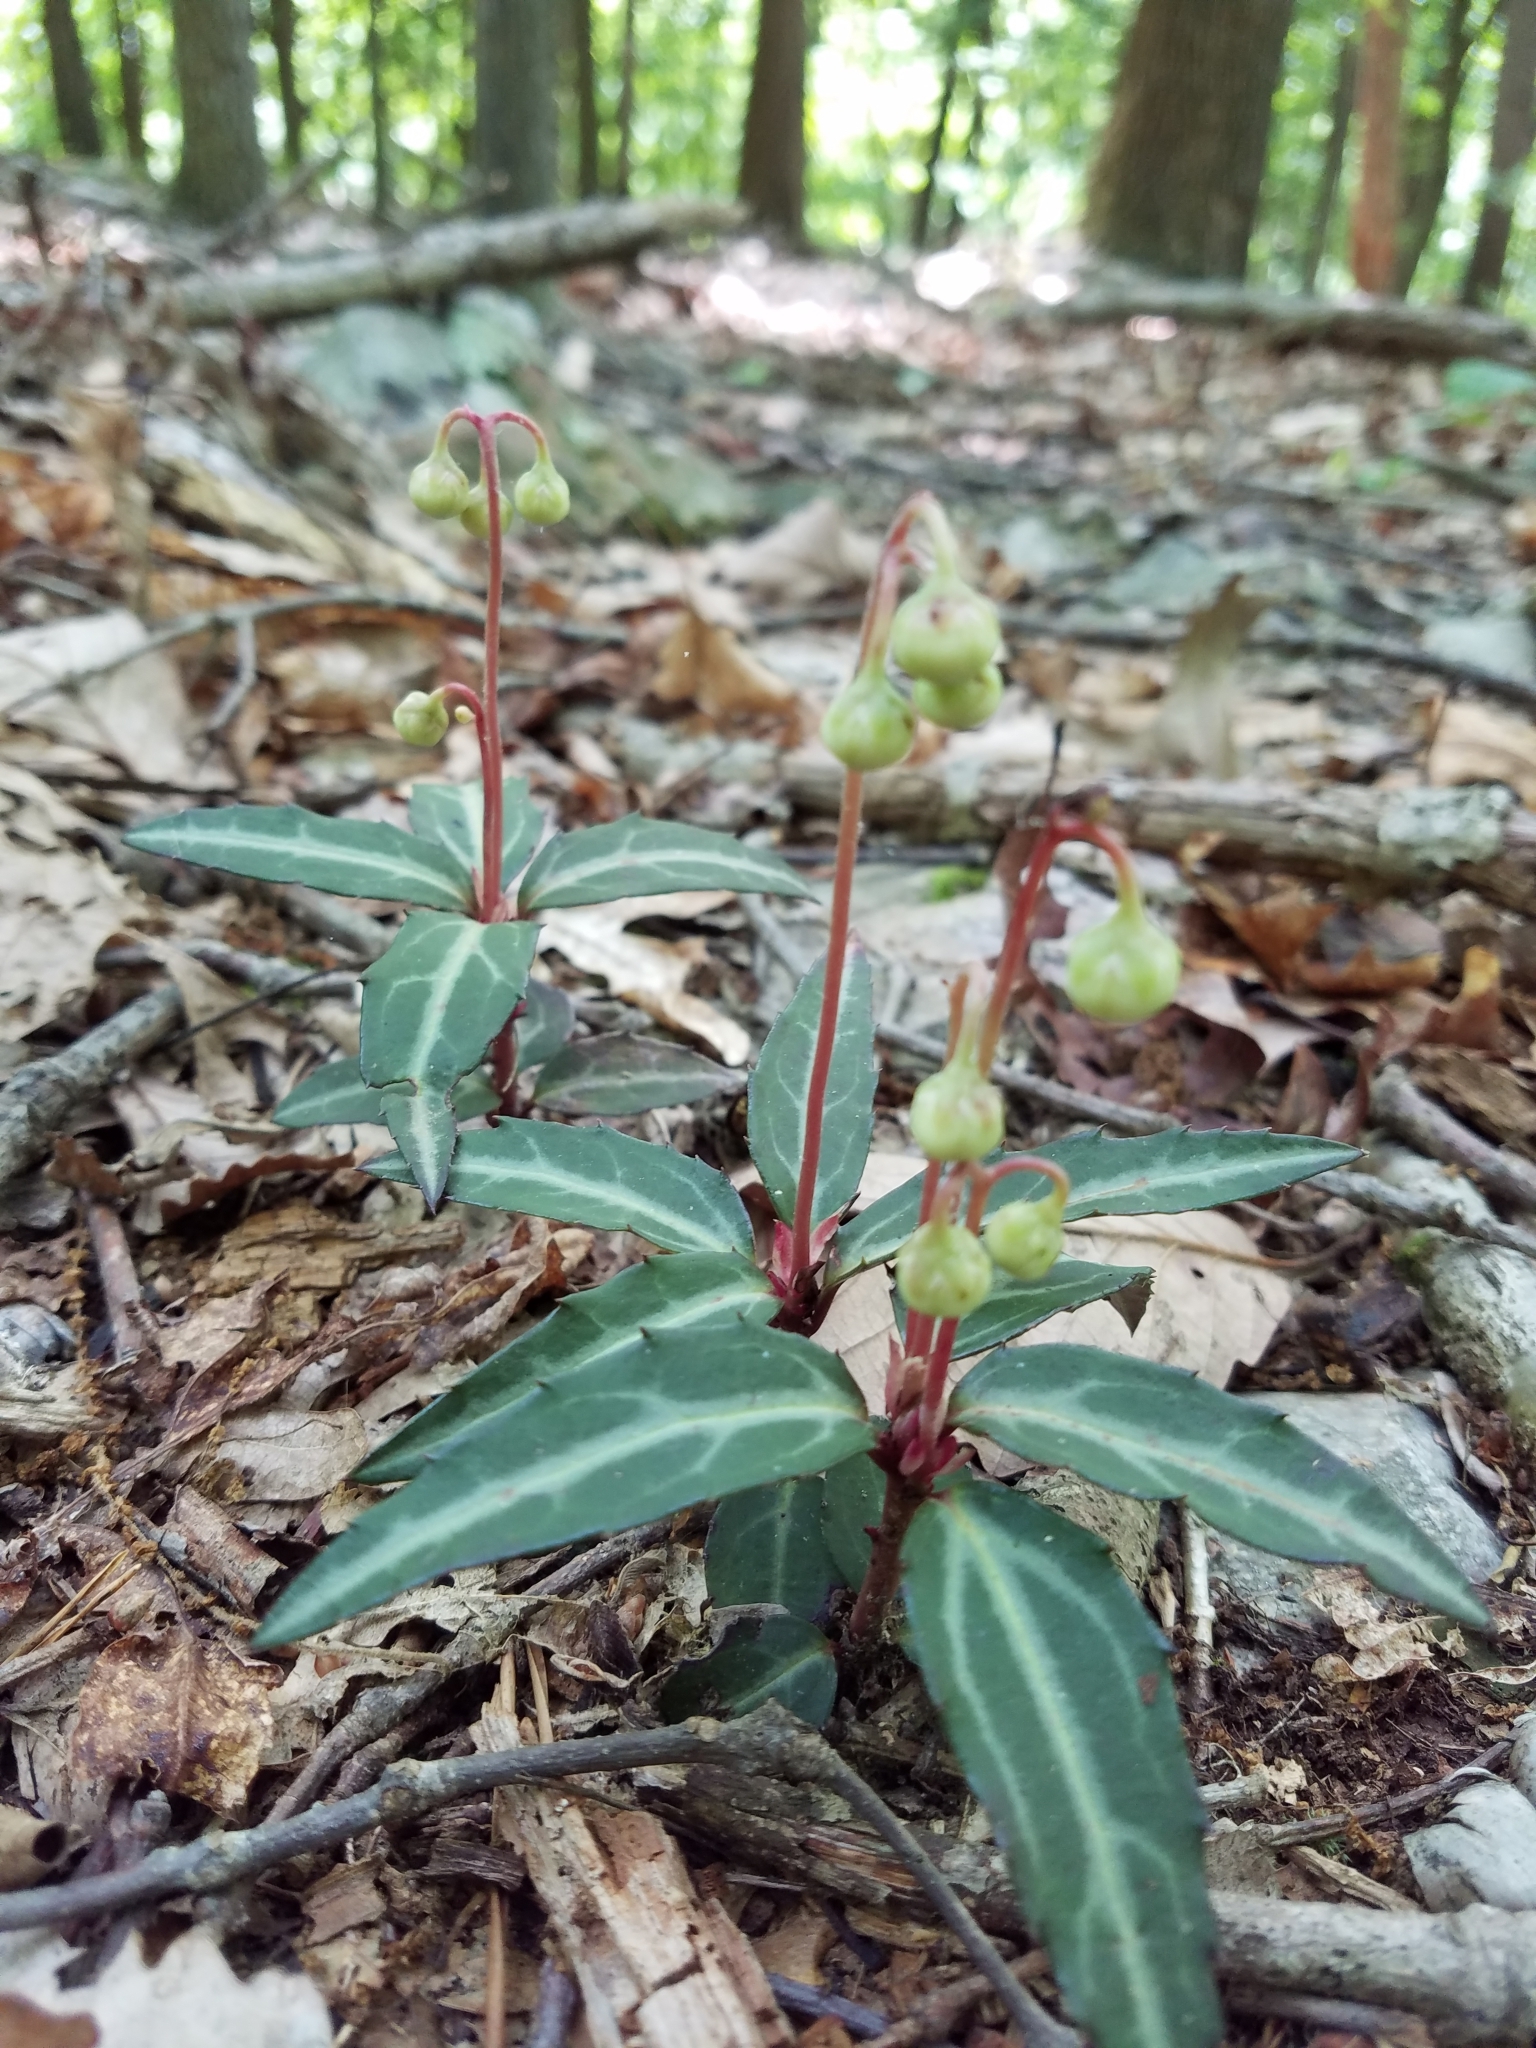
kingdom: Plantae
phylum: Tracheophyta
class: Magnoliopsida
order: Ericales
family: Ericaceae
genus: Chimaphila
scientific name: Chimaphila maculata
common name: Spotted pipsissewa
